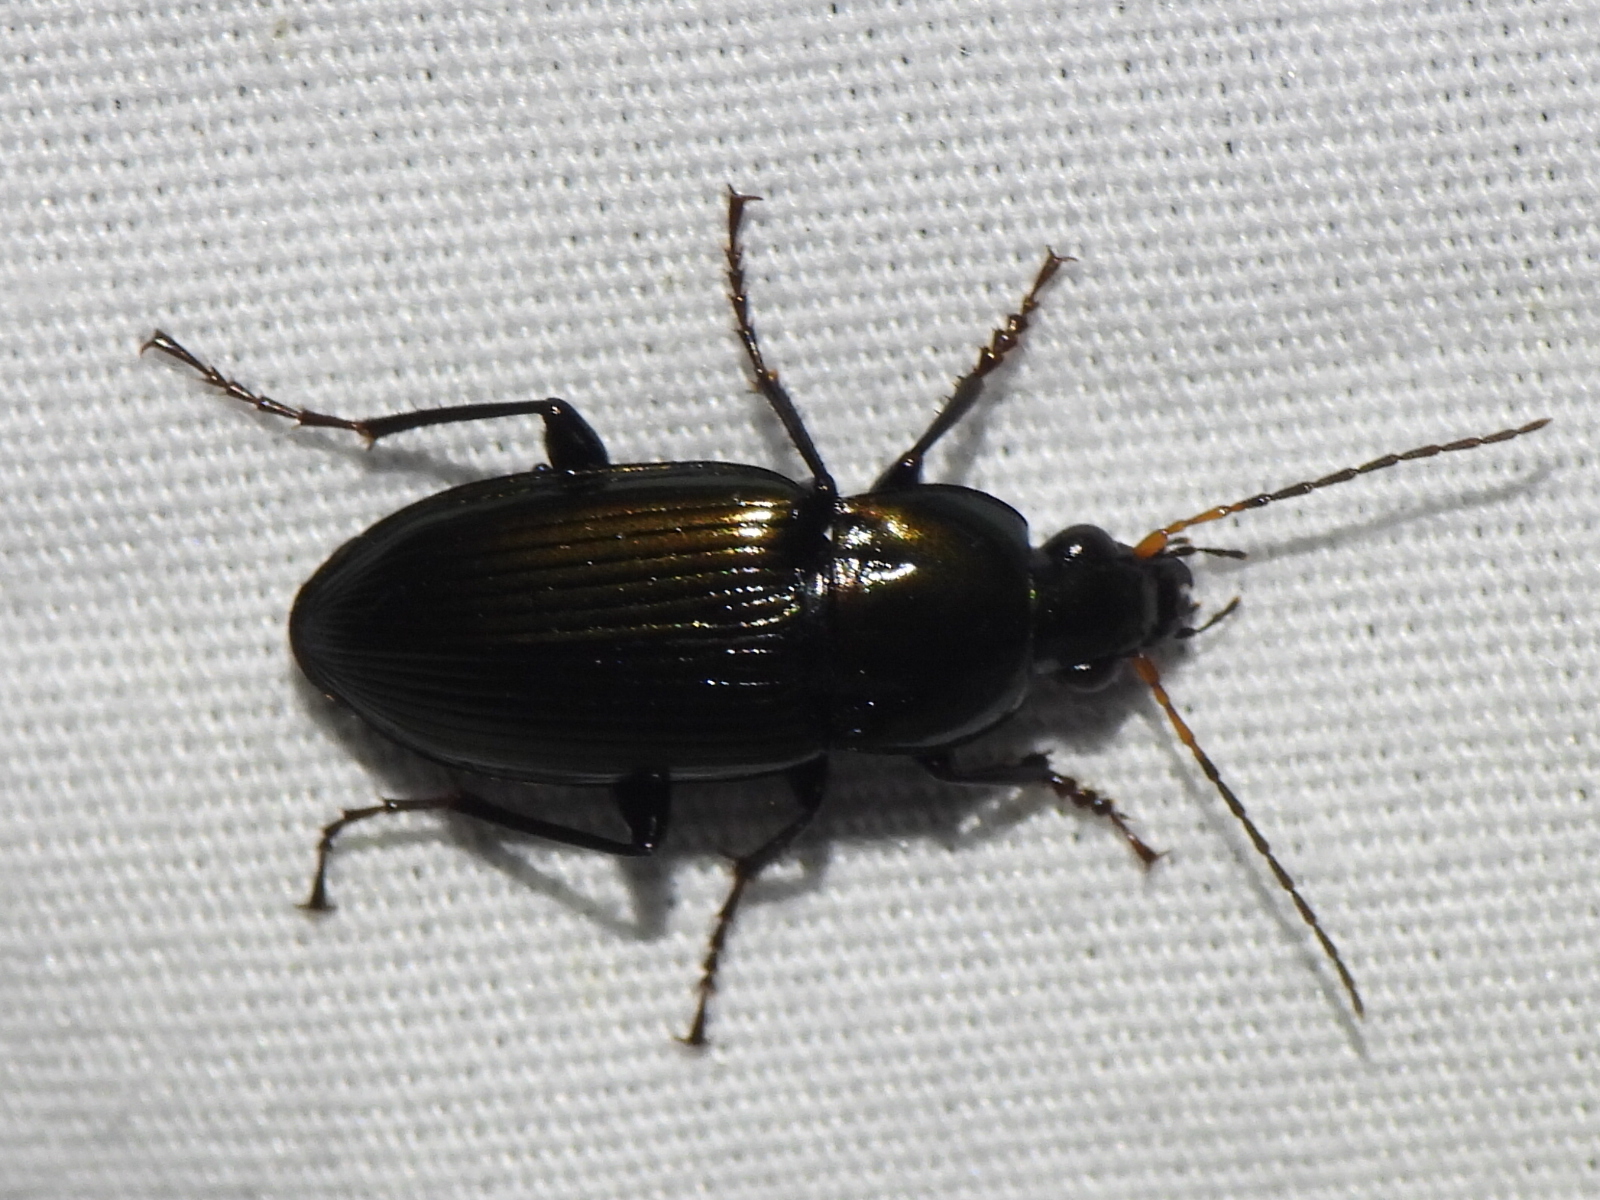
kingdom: Animalia
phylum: Arthropoda
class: Insecta
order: Coleoptera
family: Carabidae
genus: Poecilus
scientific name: Poecilus chalcites
